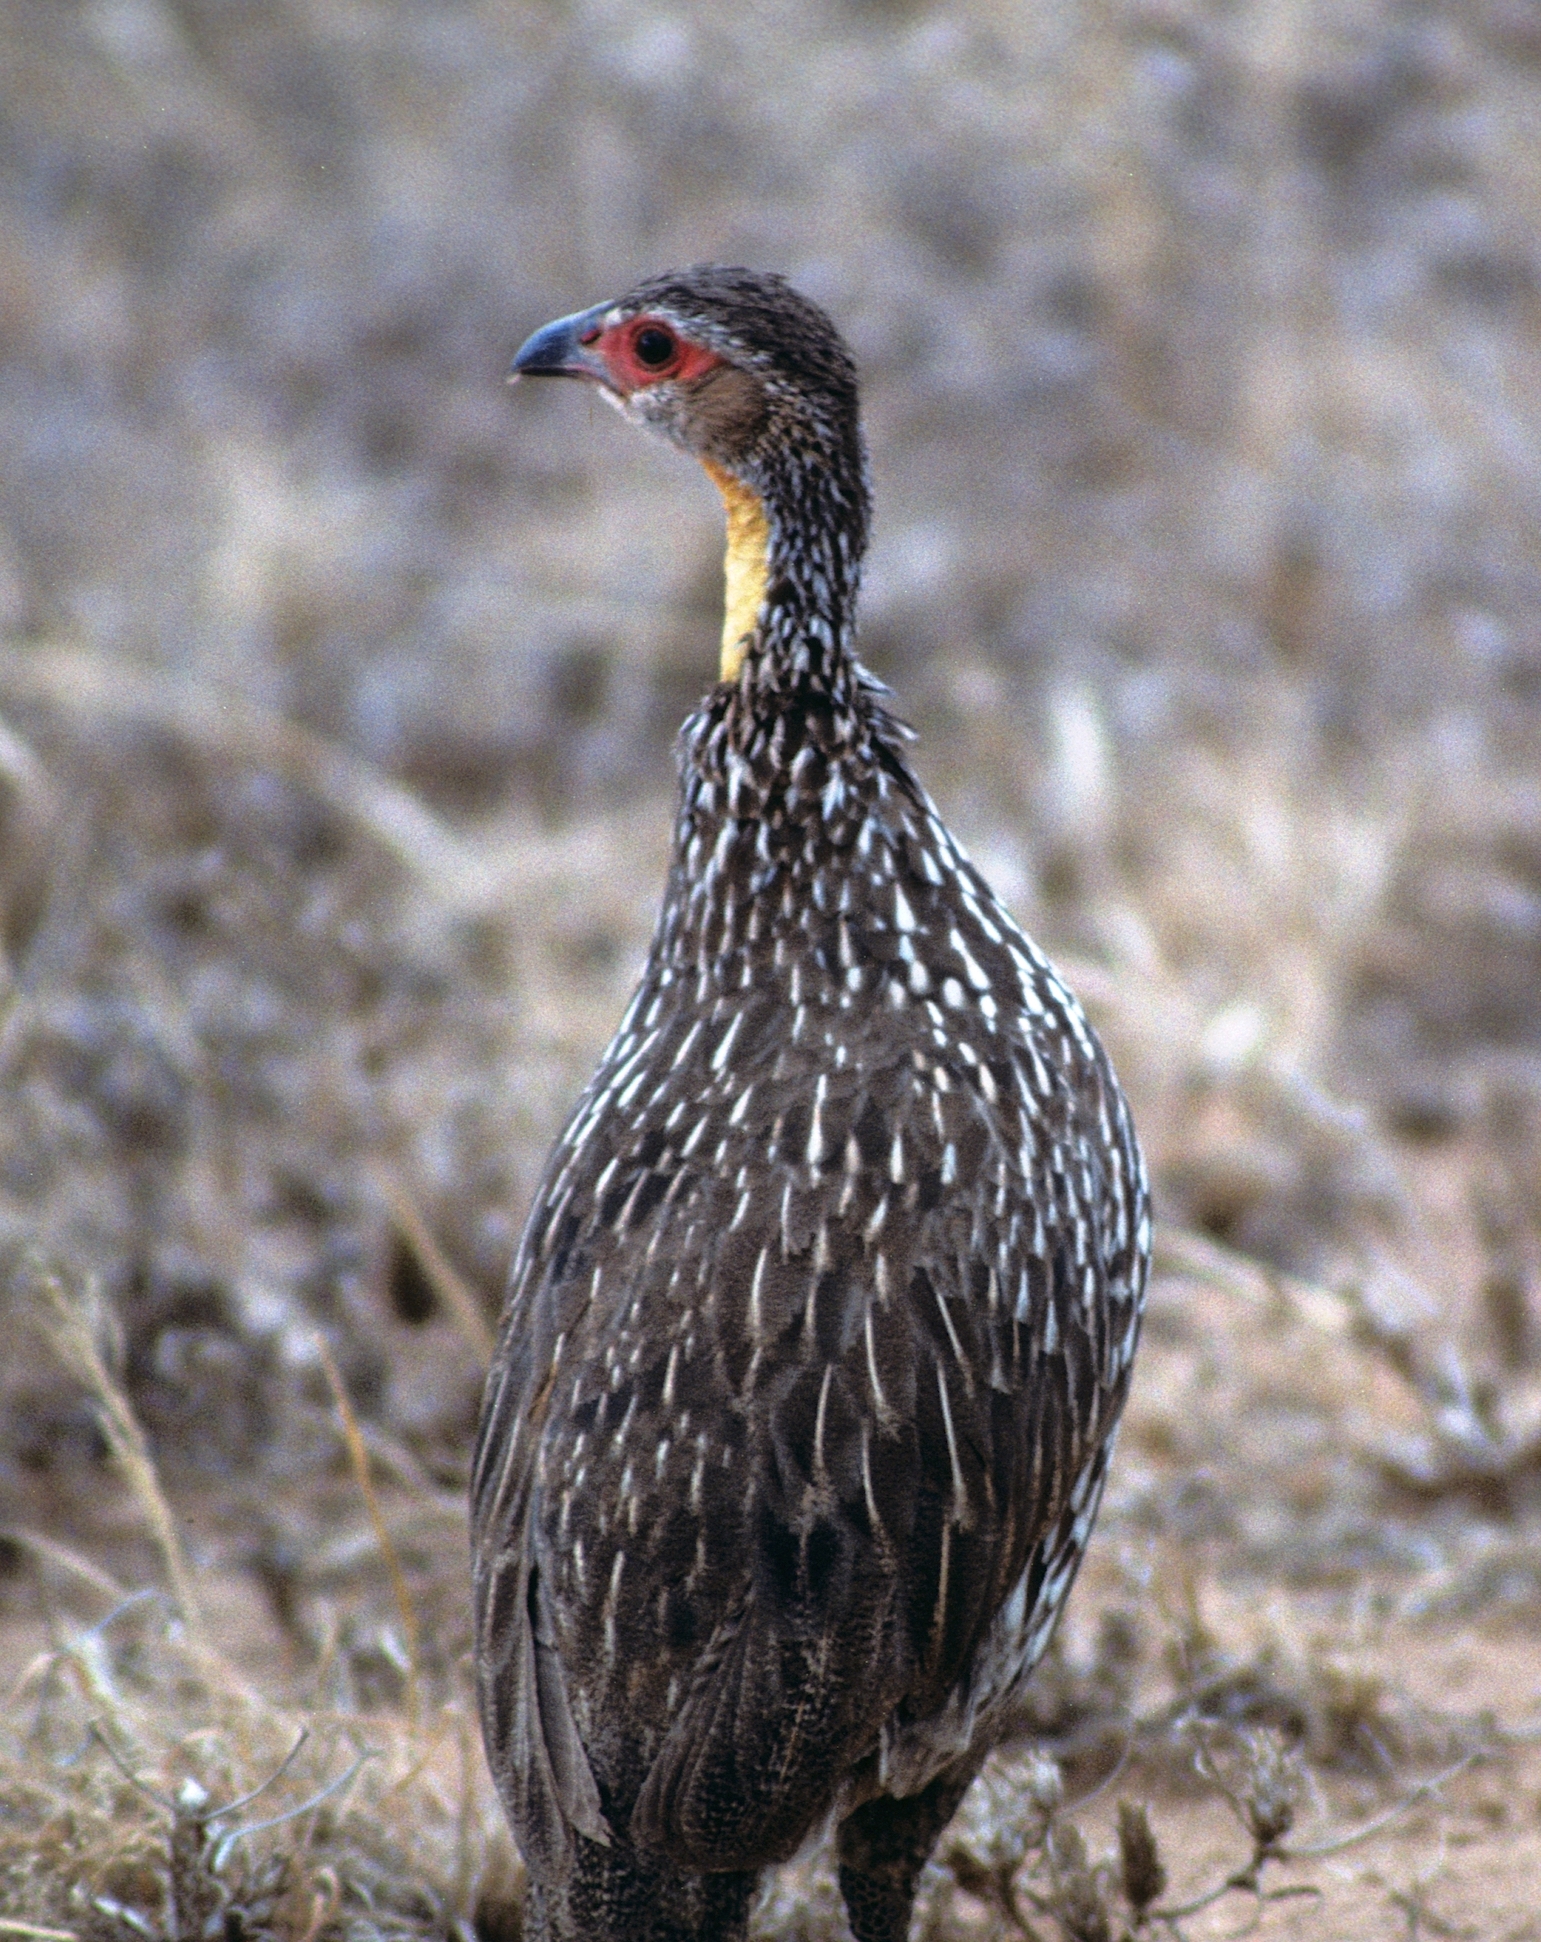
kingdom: Animalia
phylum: Chordata
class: Aves
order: Galliformes
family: Phasianidae
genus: Pternistis
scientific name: Pternistis leucoscepus
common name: Yellow-necked spurfowl
